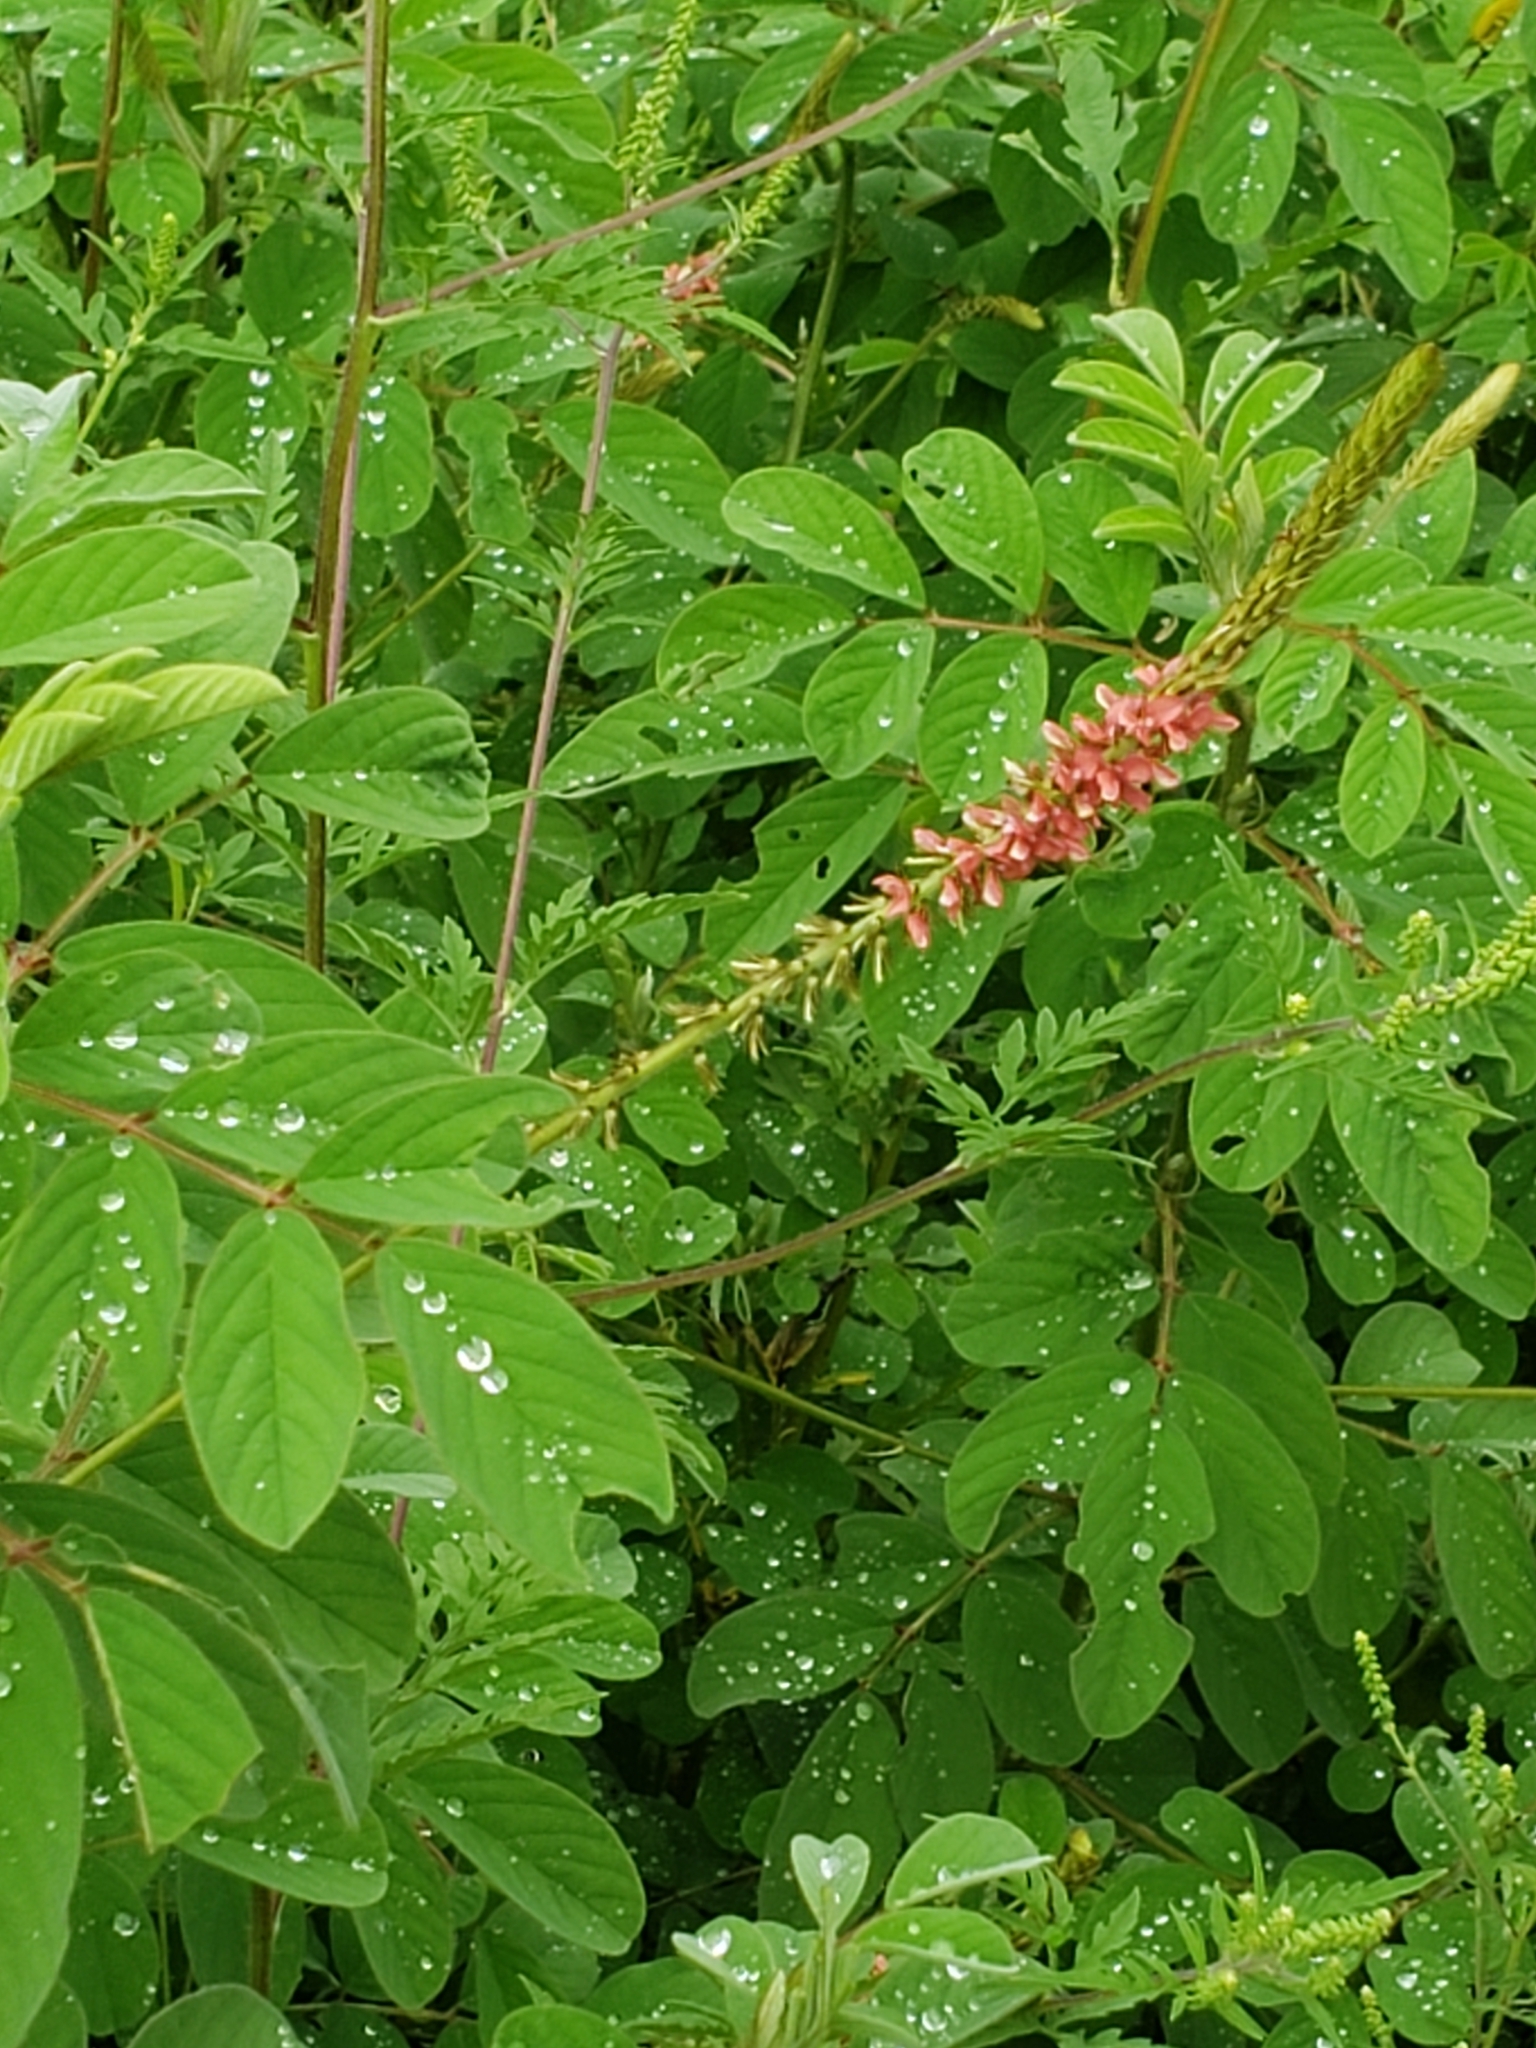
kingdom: Plantae
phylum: Tracheophyta
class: Magnoliopsida
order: Fabales
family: Fabaceae
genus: Indigofera
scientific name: Indigofera hirsuta
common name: Hairy indigo
